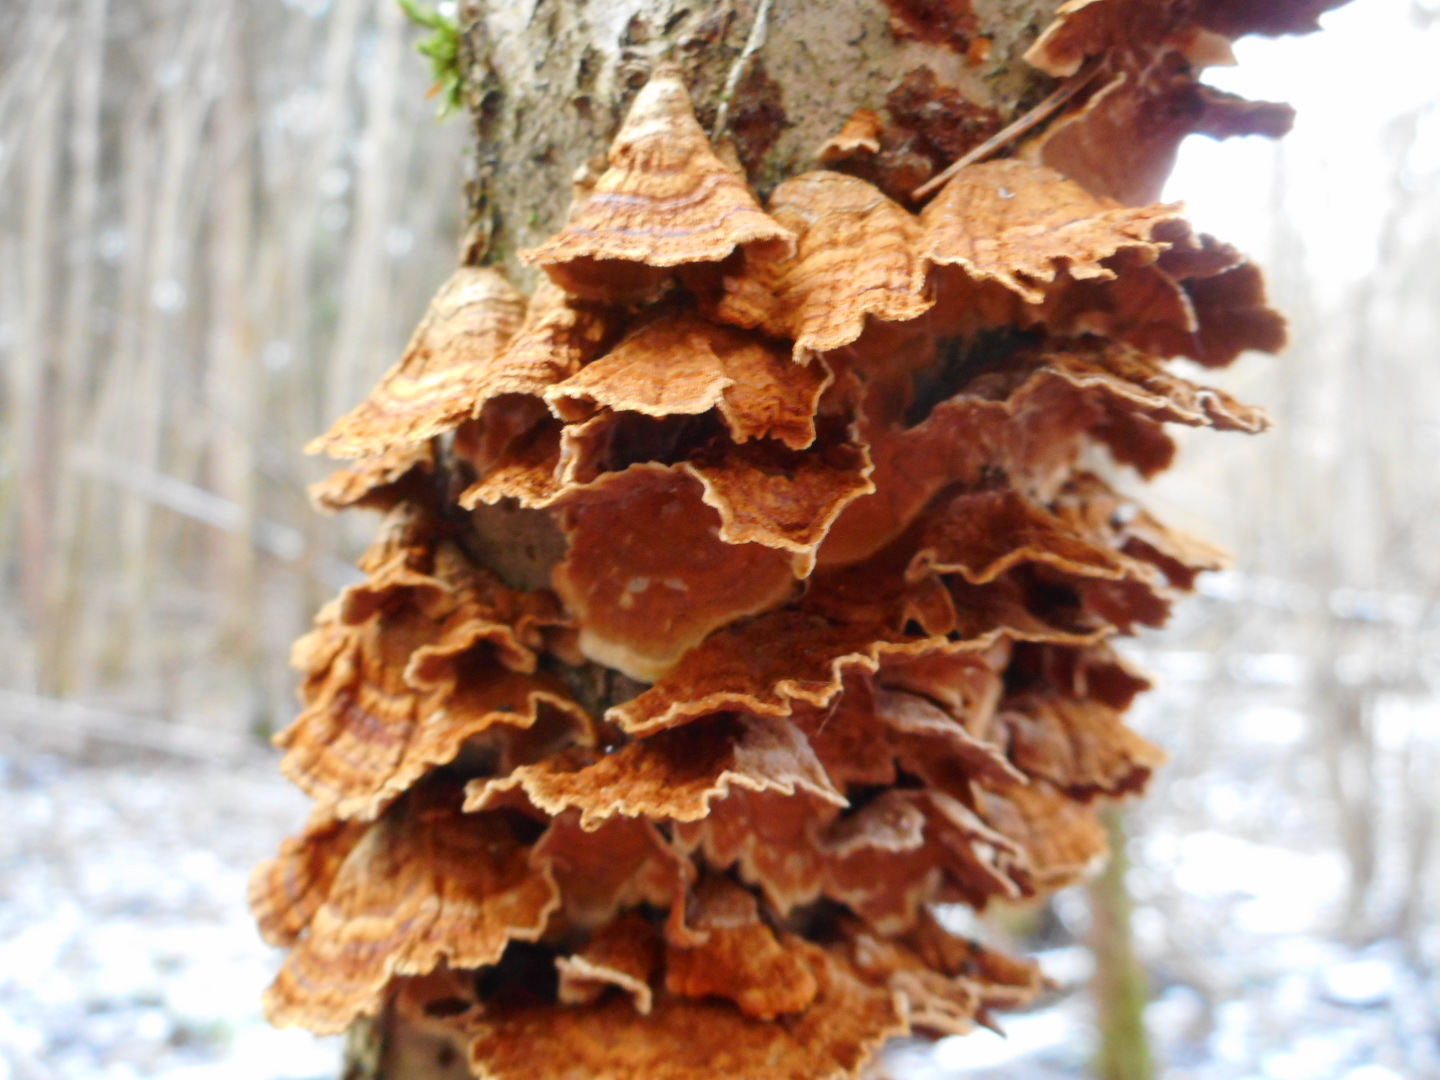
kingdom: Fungi
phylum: Basidiomycota
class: Agaricomycetes
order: Hymenochaetales
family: Hymenochaetaceae
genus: Hydnoporia
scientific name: Hydnoporia tabacina
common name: Willow glue
